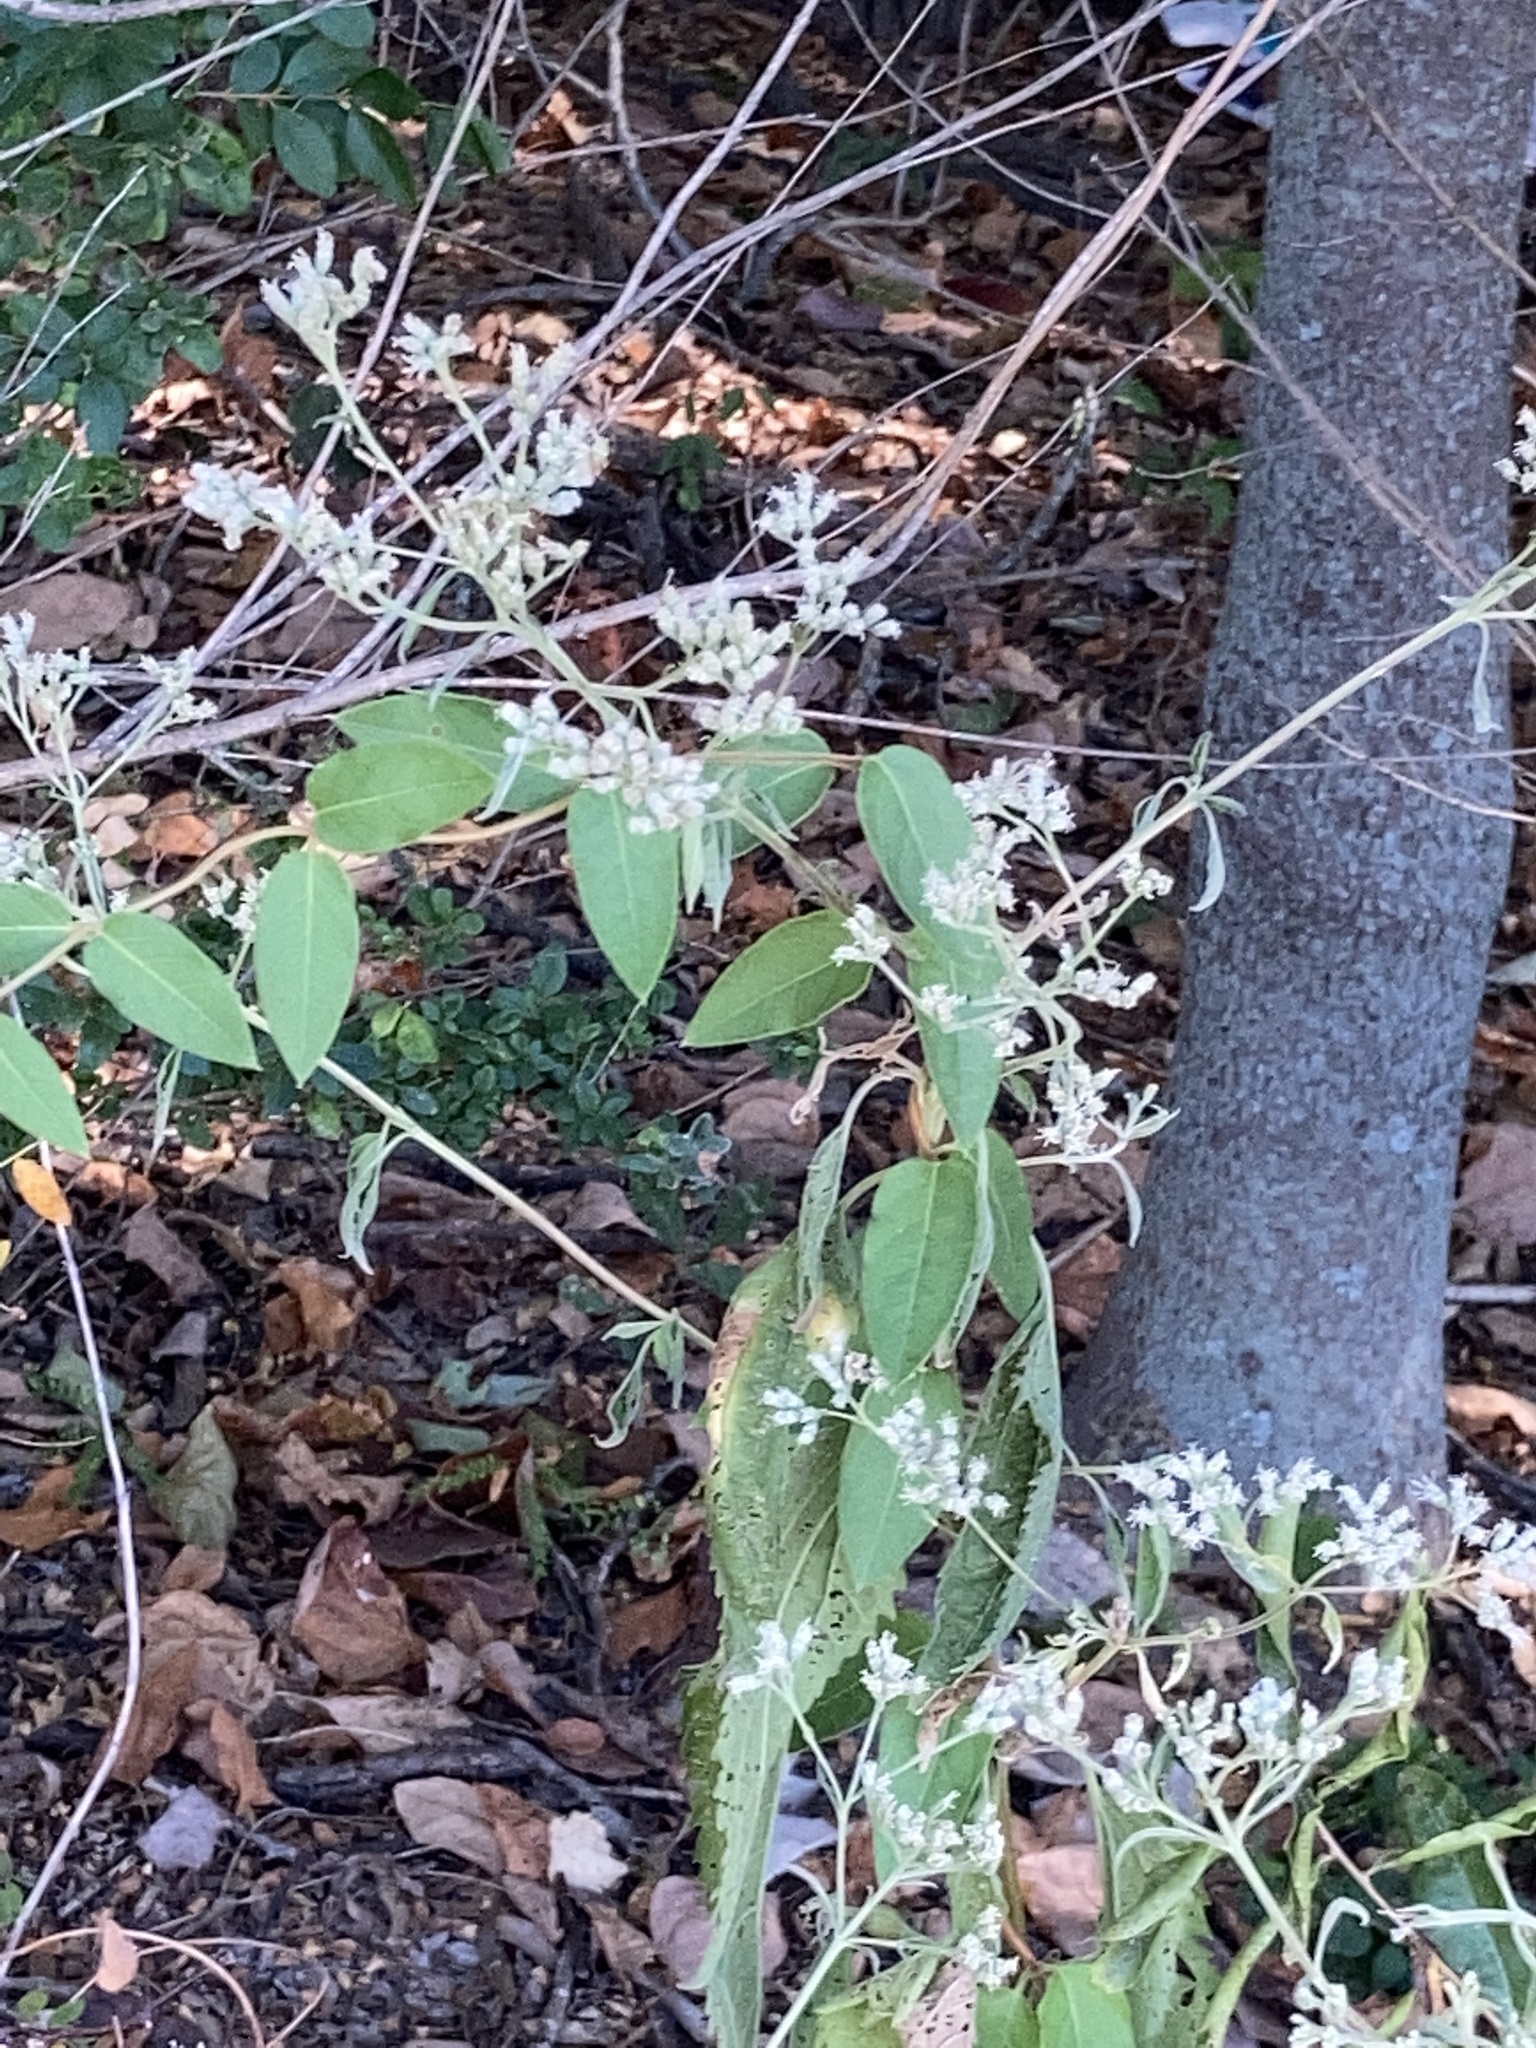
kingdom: Plantae
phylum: Tracheophyta
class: Magnoliopsida
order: Asterales
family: Asteraceae
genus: Eupatorium
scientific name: Eupatorium serotinum
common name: Late boneset
